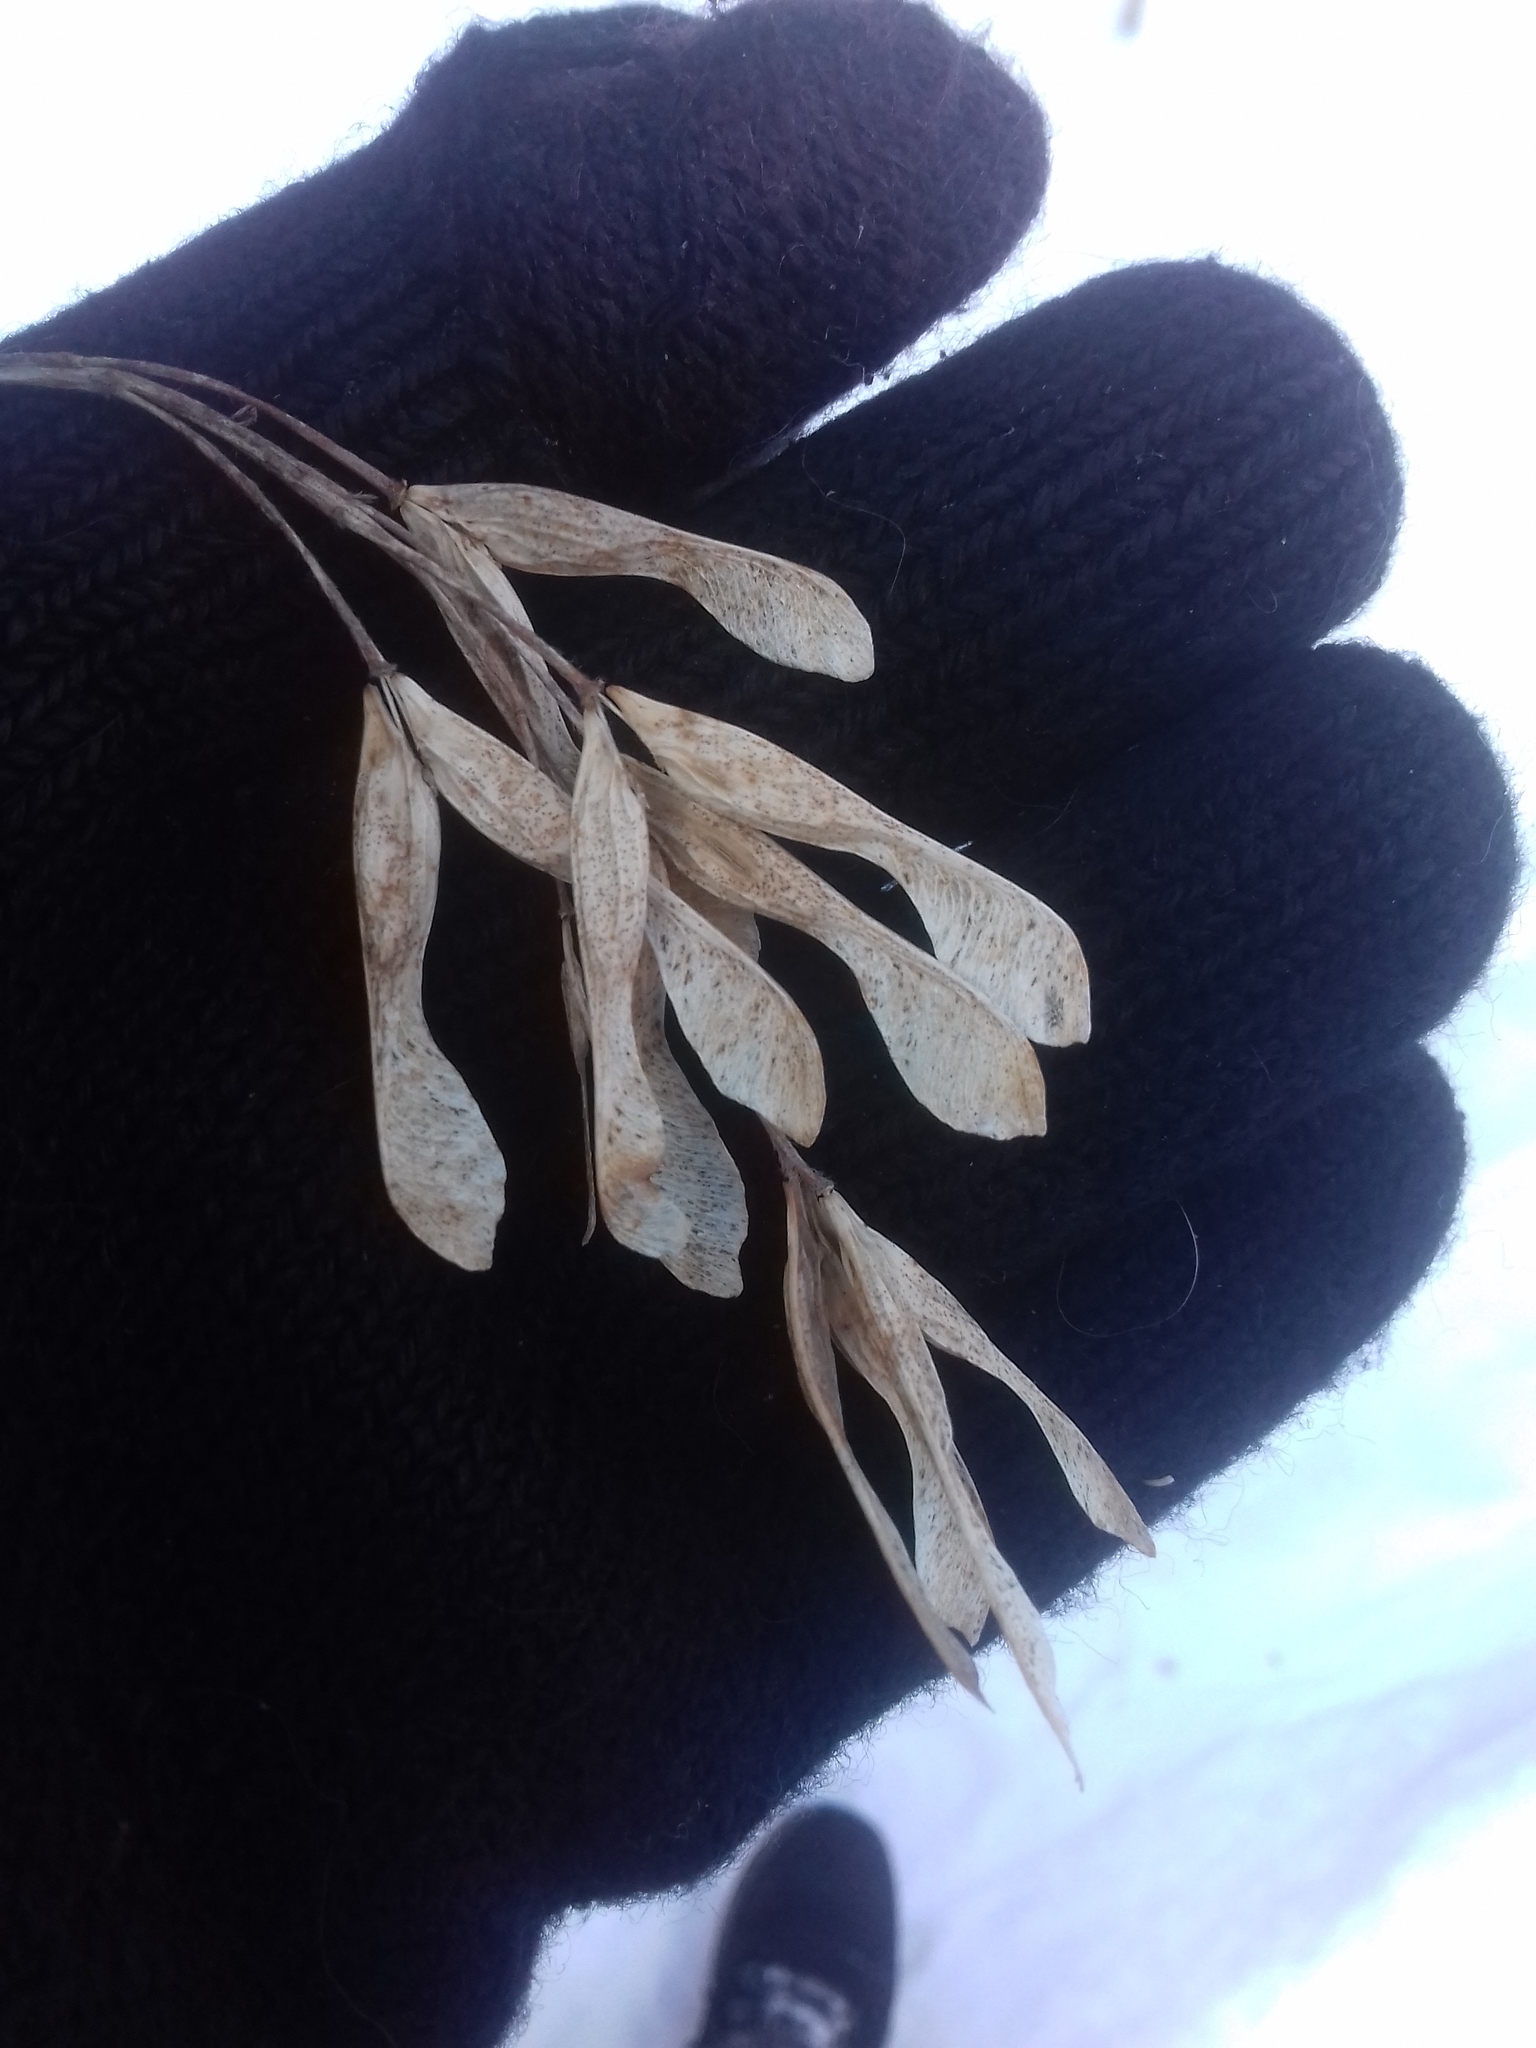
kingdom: Plantae
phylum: Tracheophyta
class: Magnoliopsida
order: Sapindales
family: Sapindaceae
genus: Acer
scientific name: Acer negundo
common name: Ashleaf maple
